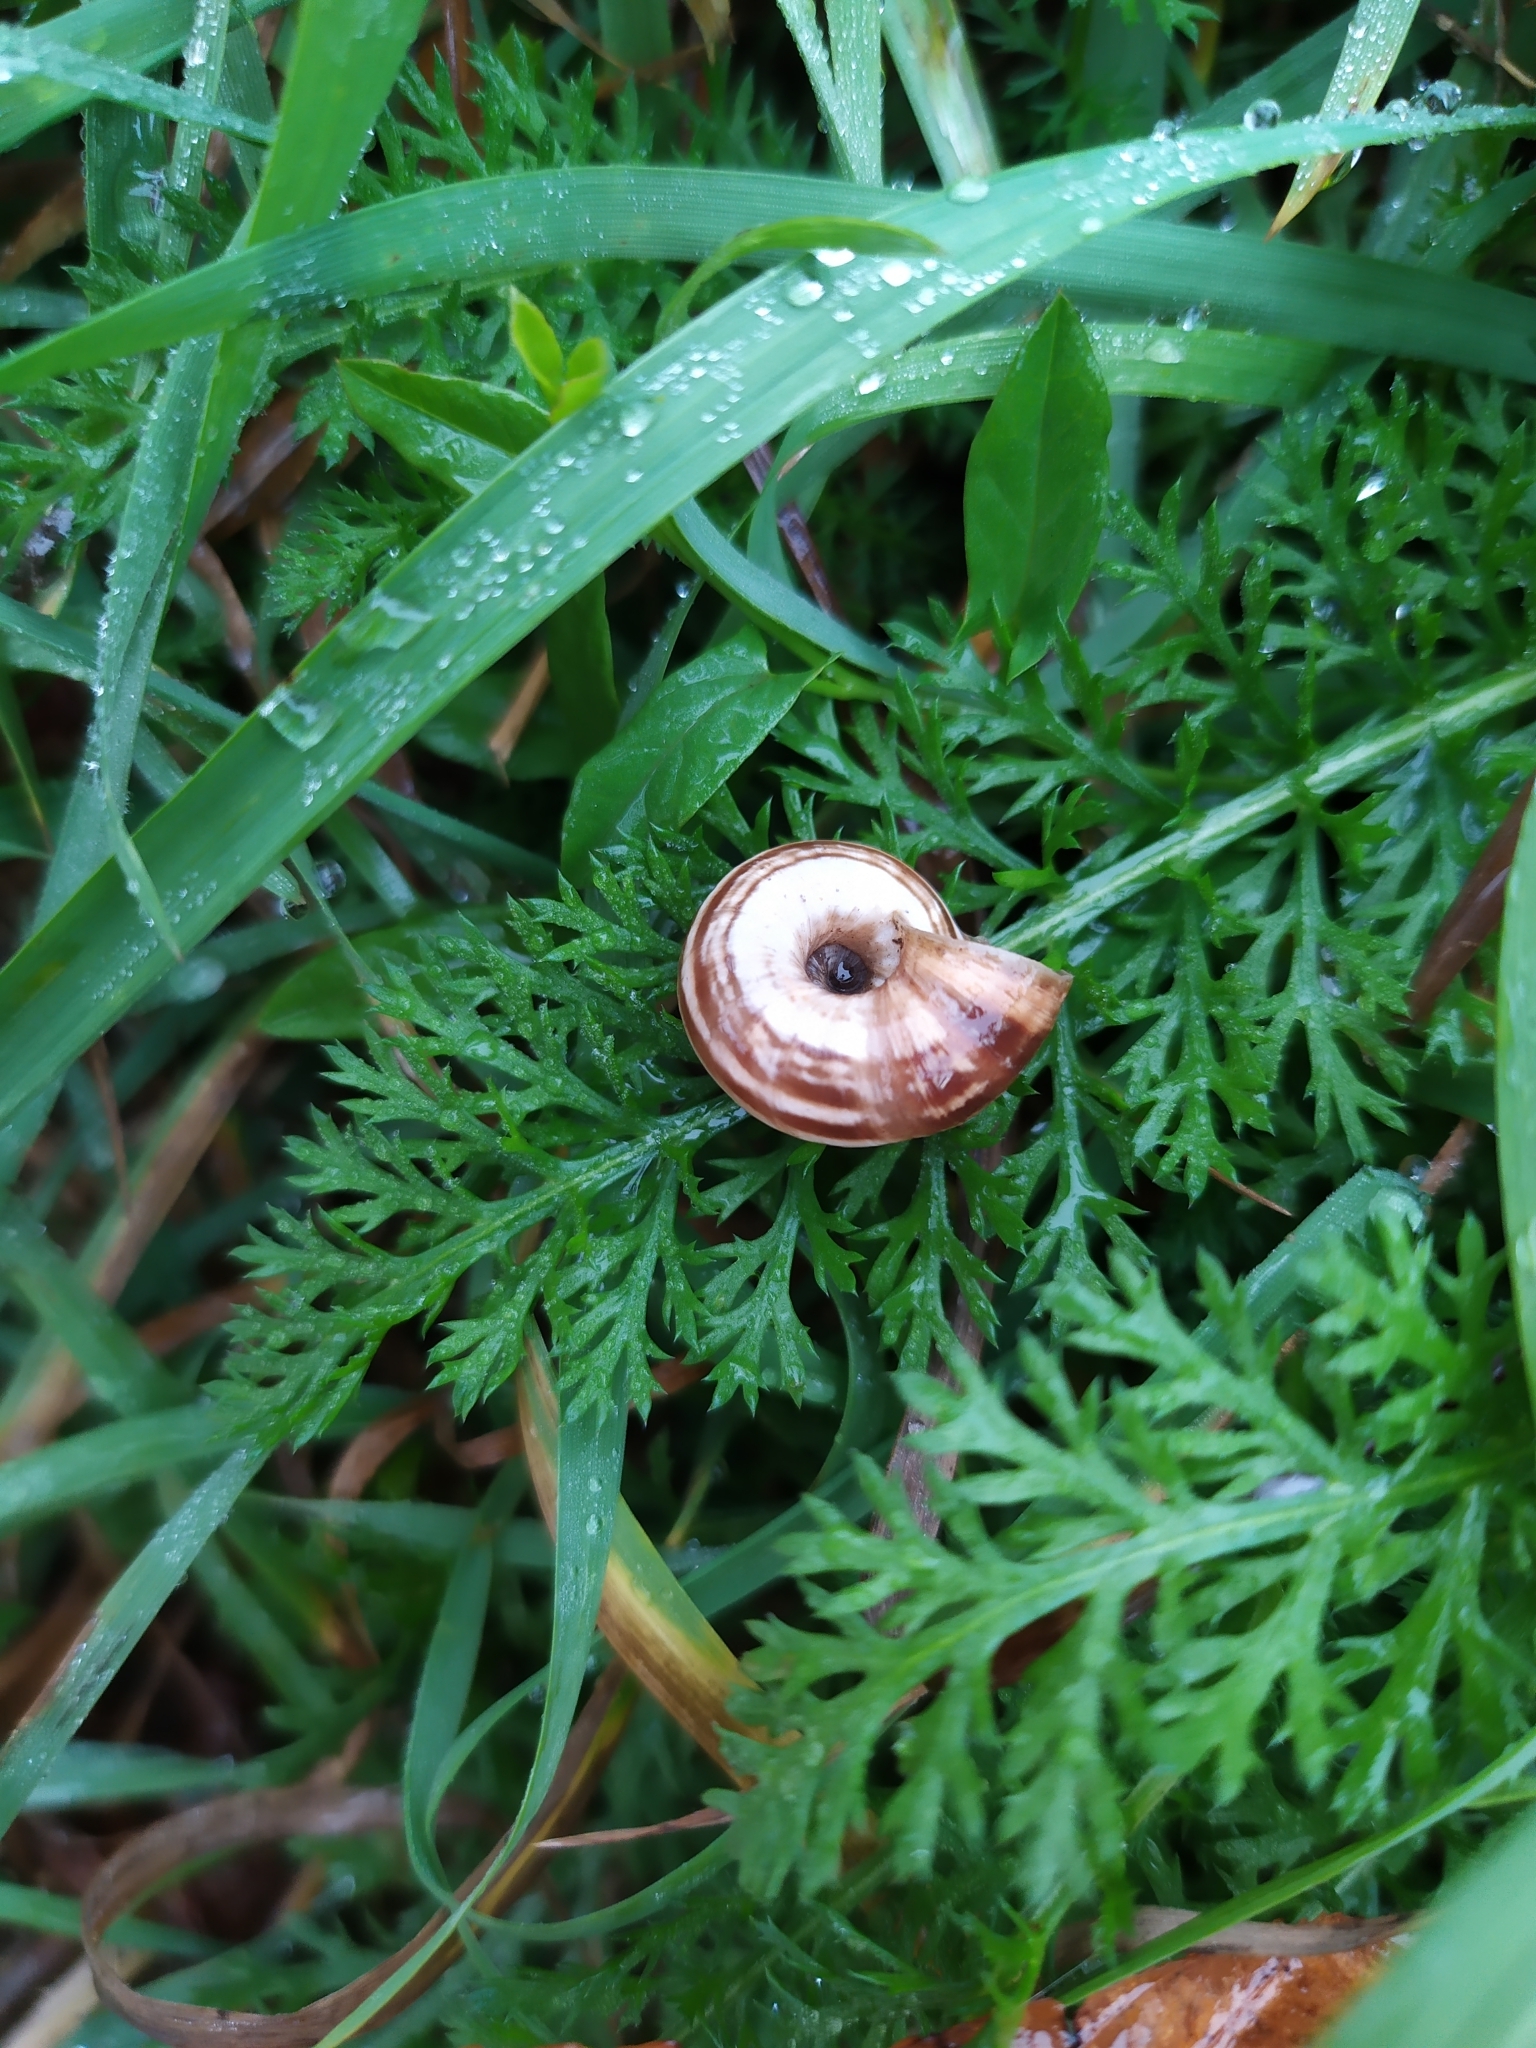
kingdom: Animalia
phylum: Mollusca
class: Gastropoda
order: Stylommatophora
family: Geomitridae
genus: Xerolenta
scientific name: Xerolenta obvia
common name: White heath snail
